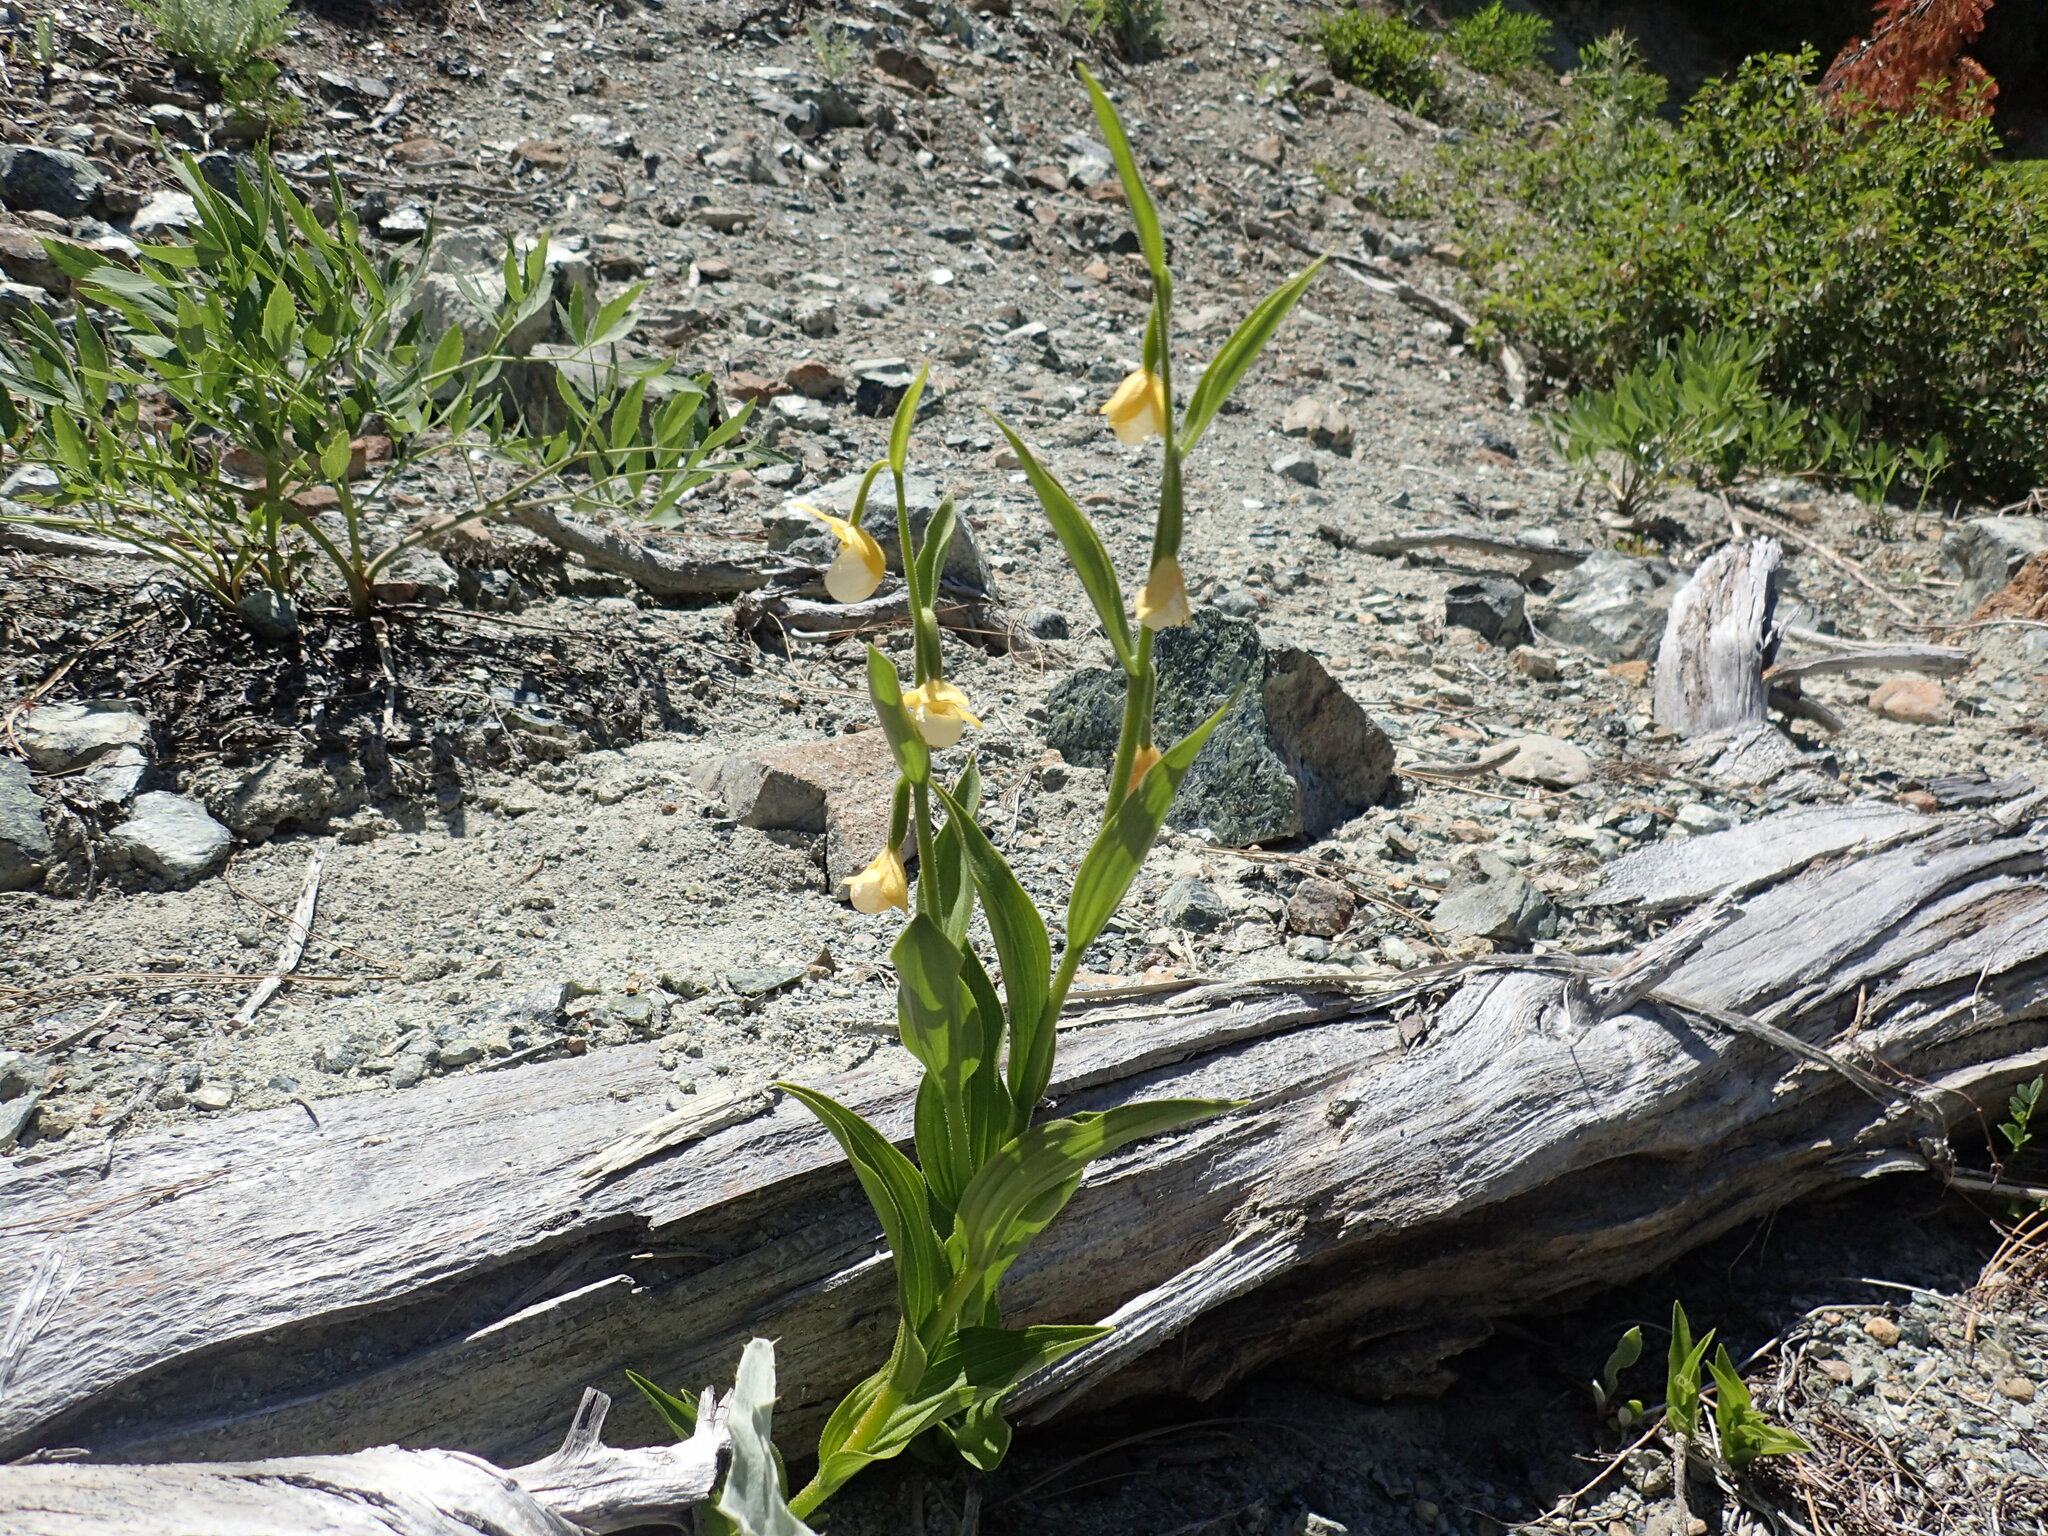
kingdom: Plantae
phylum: Tracheophyta
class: Liliopsida
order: Asparagales
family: Orchidaceae
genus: Cypripedium
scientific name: Cypripedium californicum
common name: California lady's slipper
